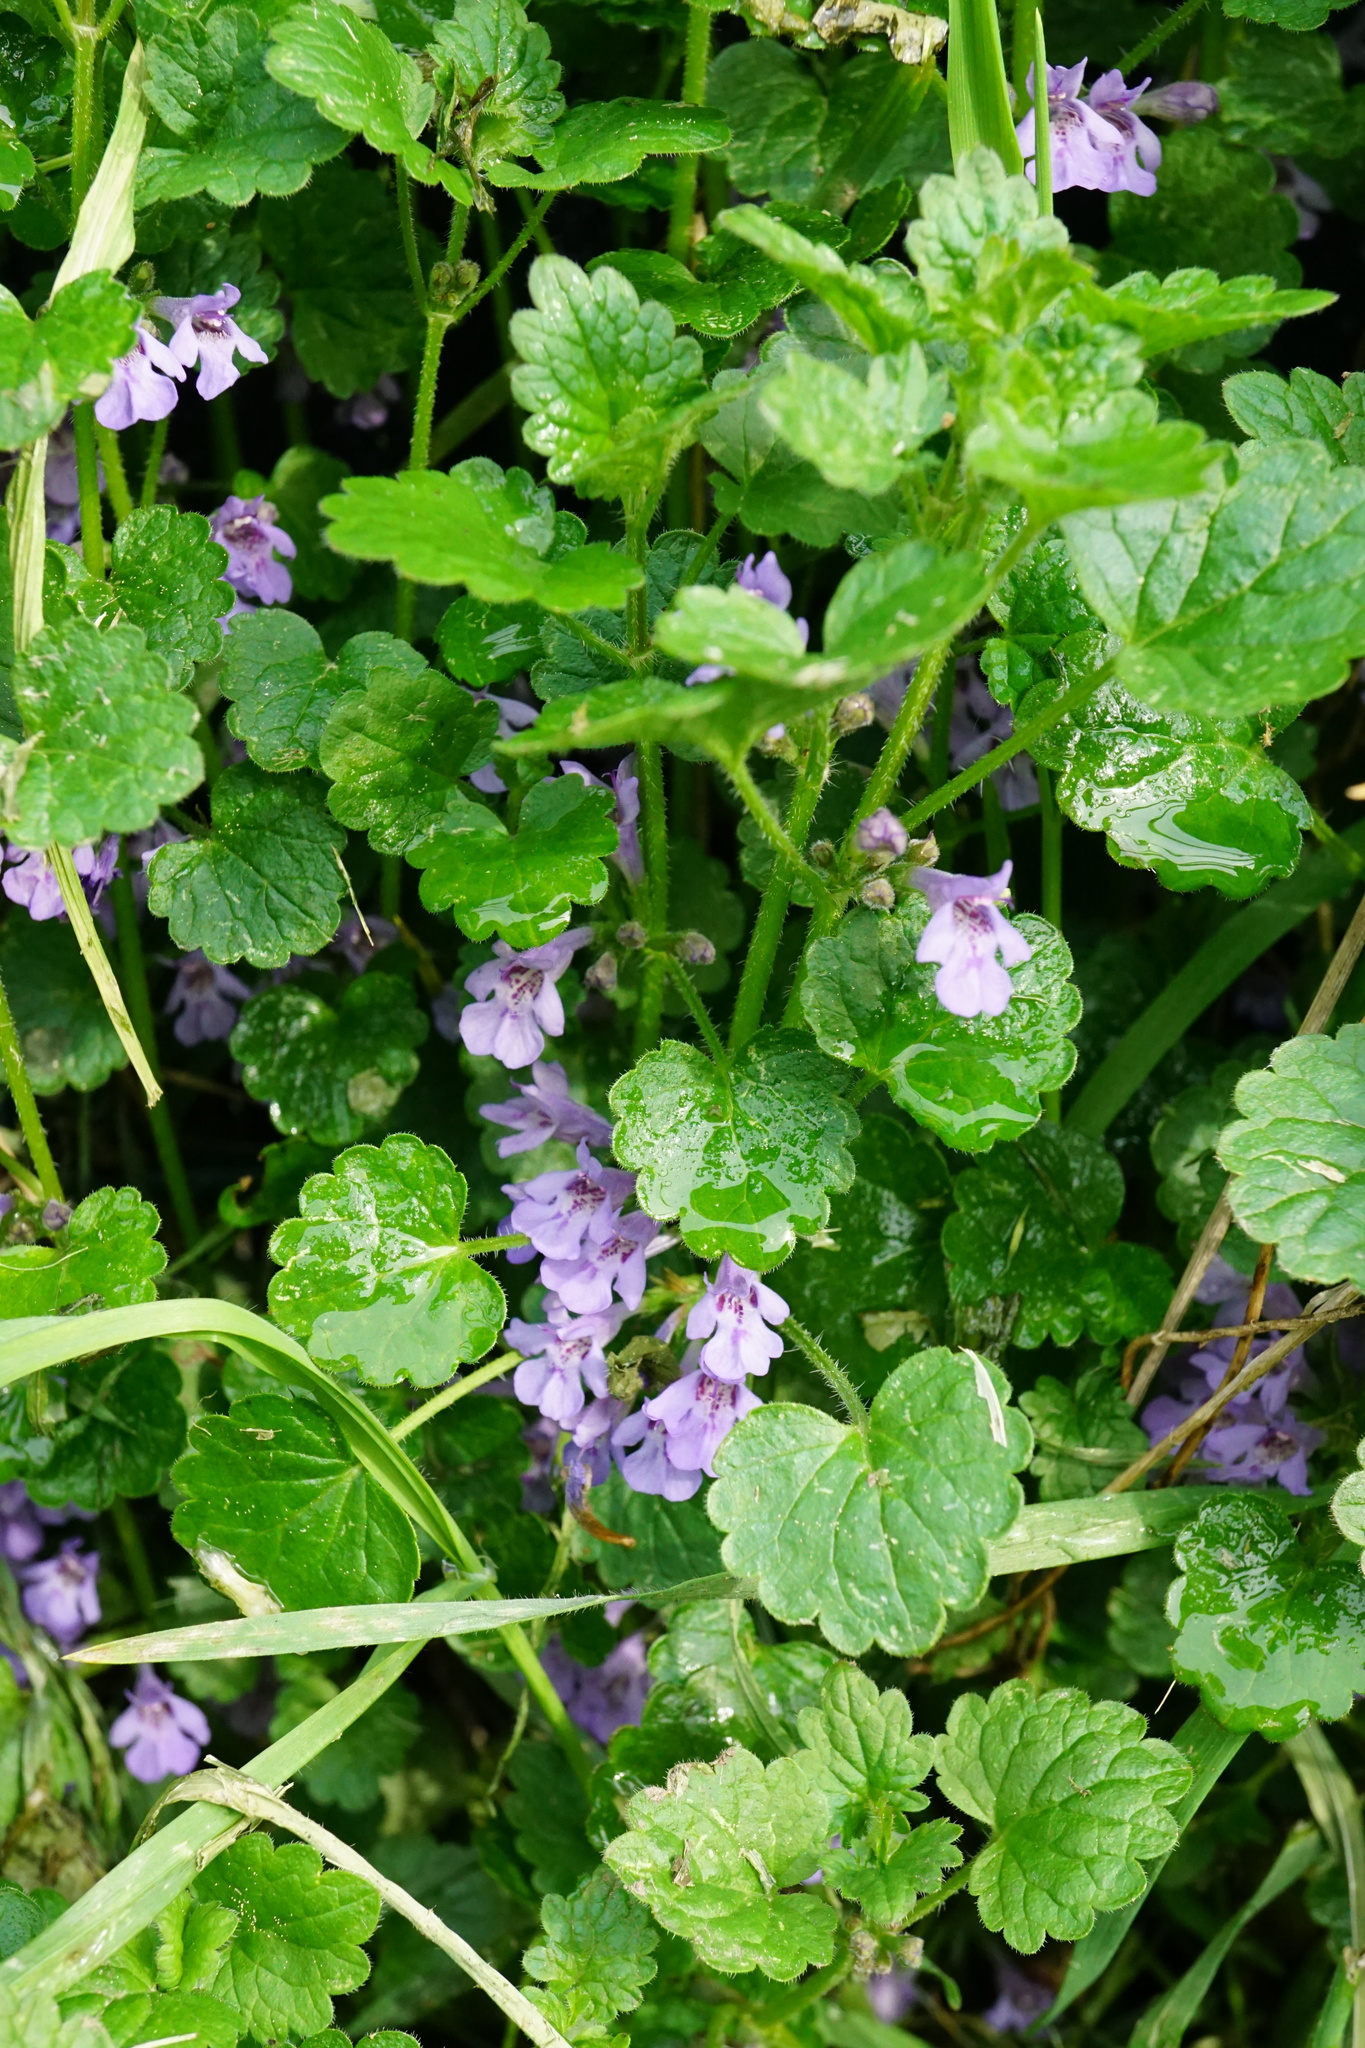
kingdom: Plantae
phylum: Tracheophyta
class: Magnoliopsida
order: Lamiales
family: Lamiaceae
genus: Glechoma
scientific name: Glechoma hederacea
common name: Ground ivy
